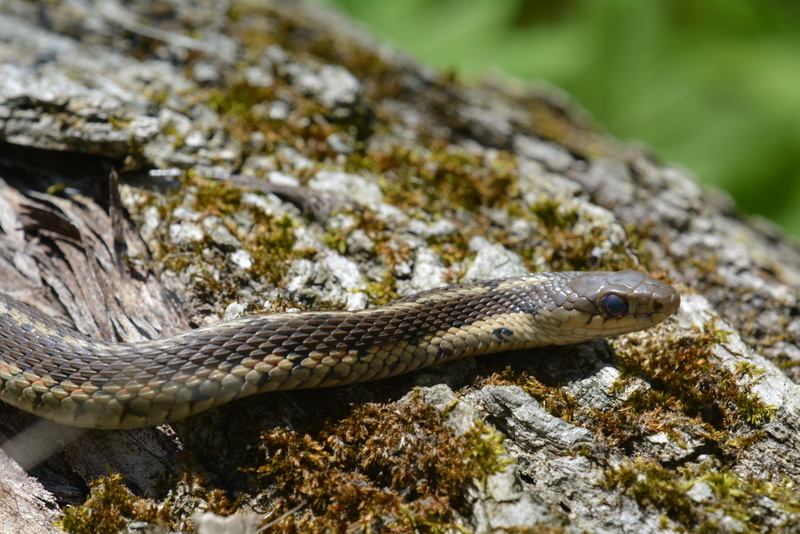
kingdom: Animalia
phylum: Chordata
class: Squamata
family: Colubridae
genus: Thamnophis
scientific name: Thamnophis sirtalis
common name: Common garter snake
